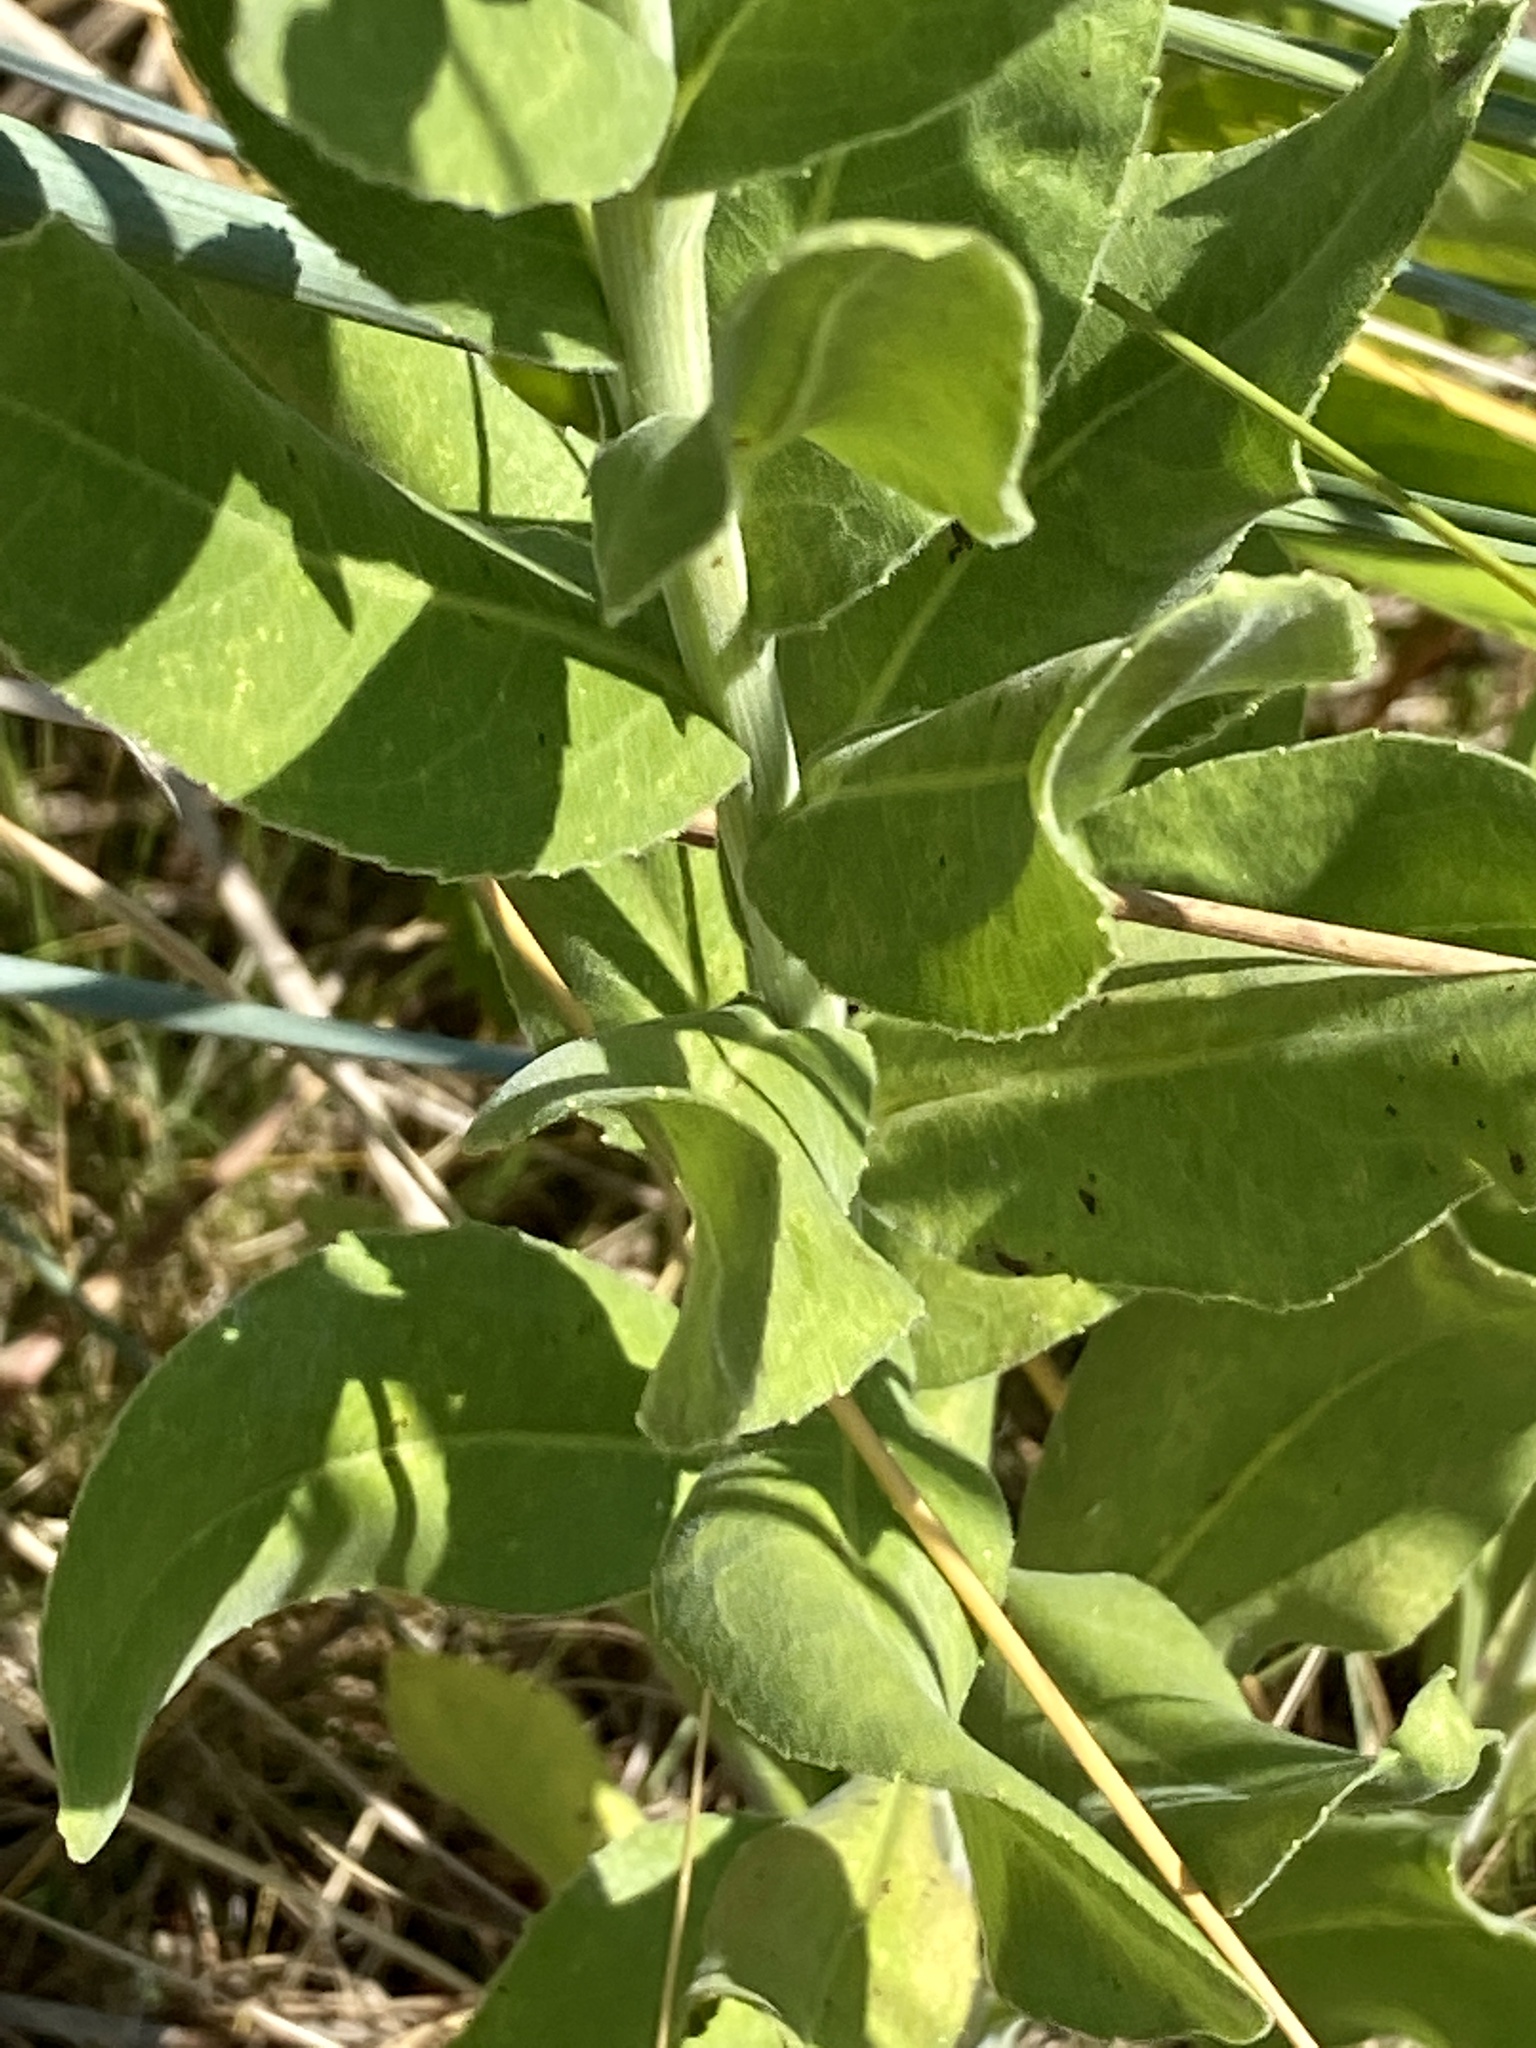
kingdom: Plantae
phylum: Tracheophyta
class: Magnoliopsida
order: Asterales
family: Asteraceae
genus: Solidago
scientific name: Solidago rigida
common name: Rigid goldenrod
